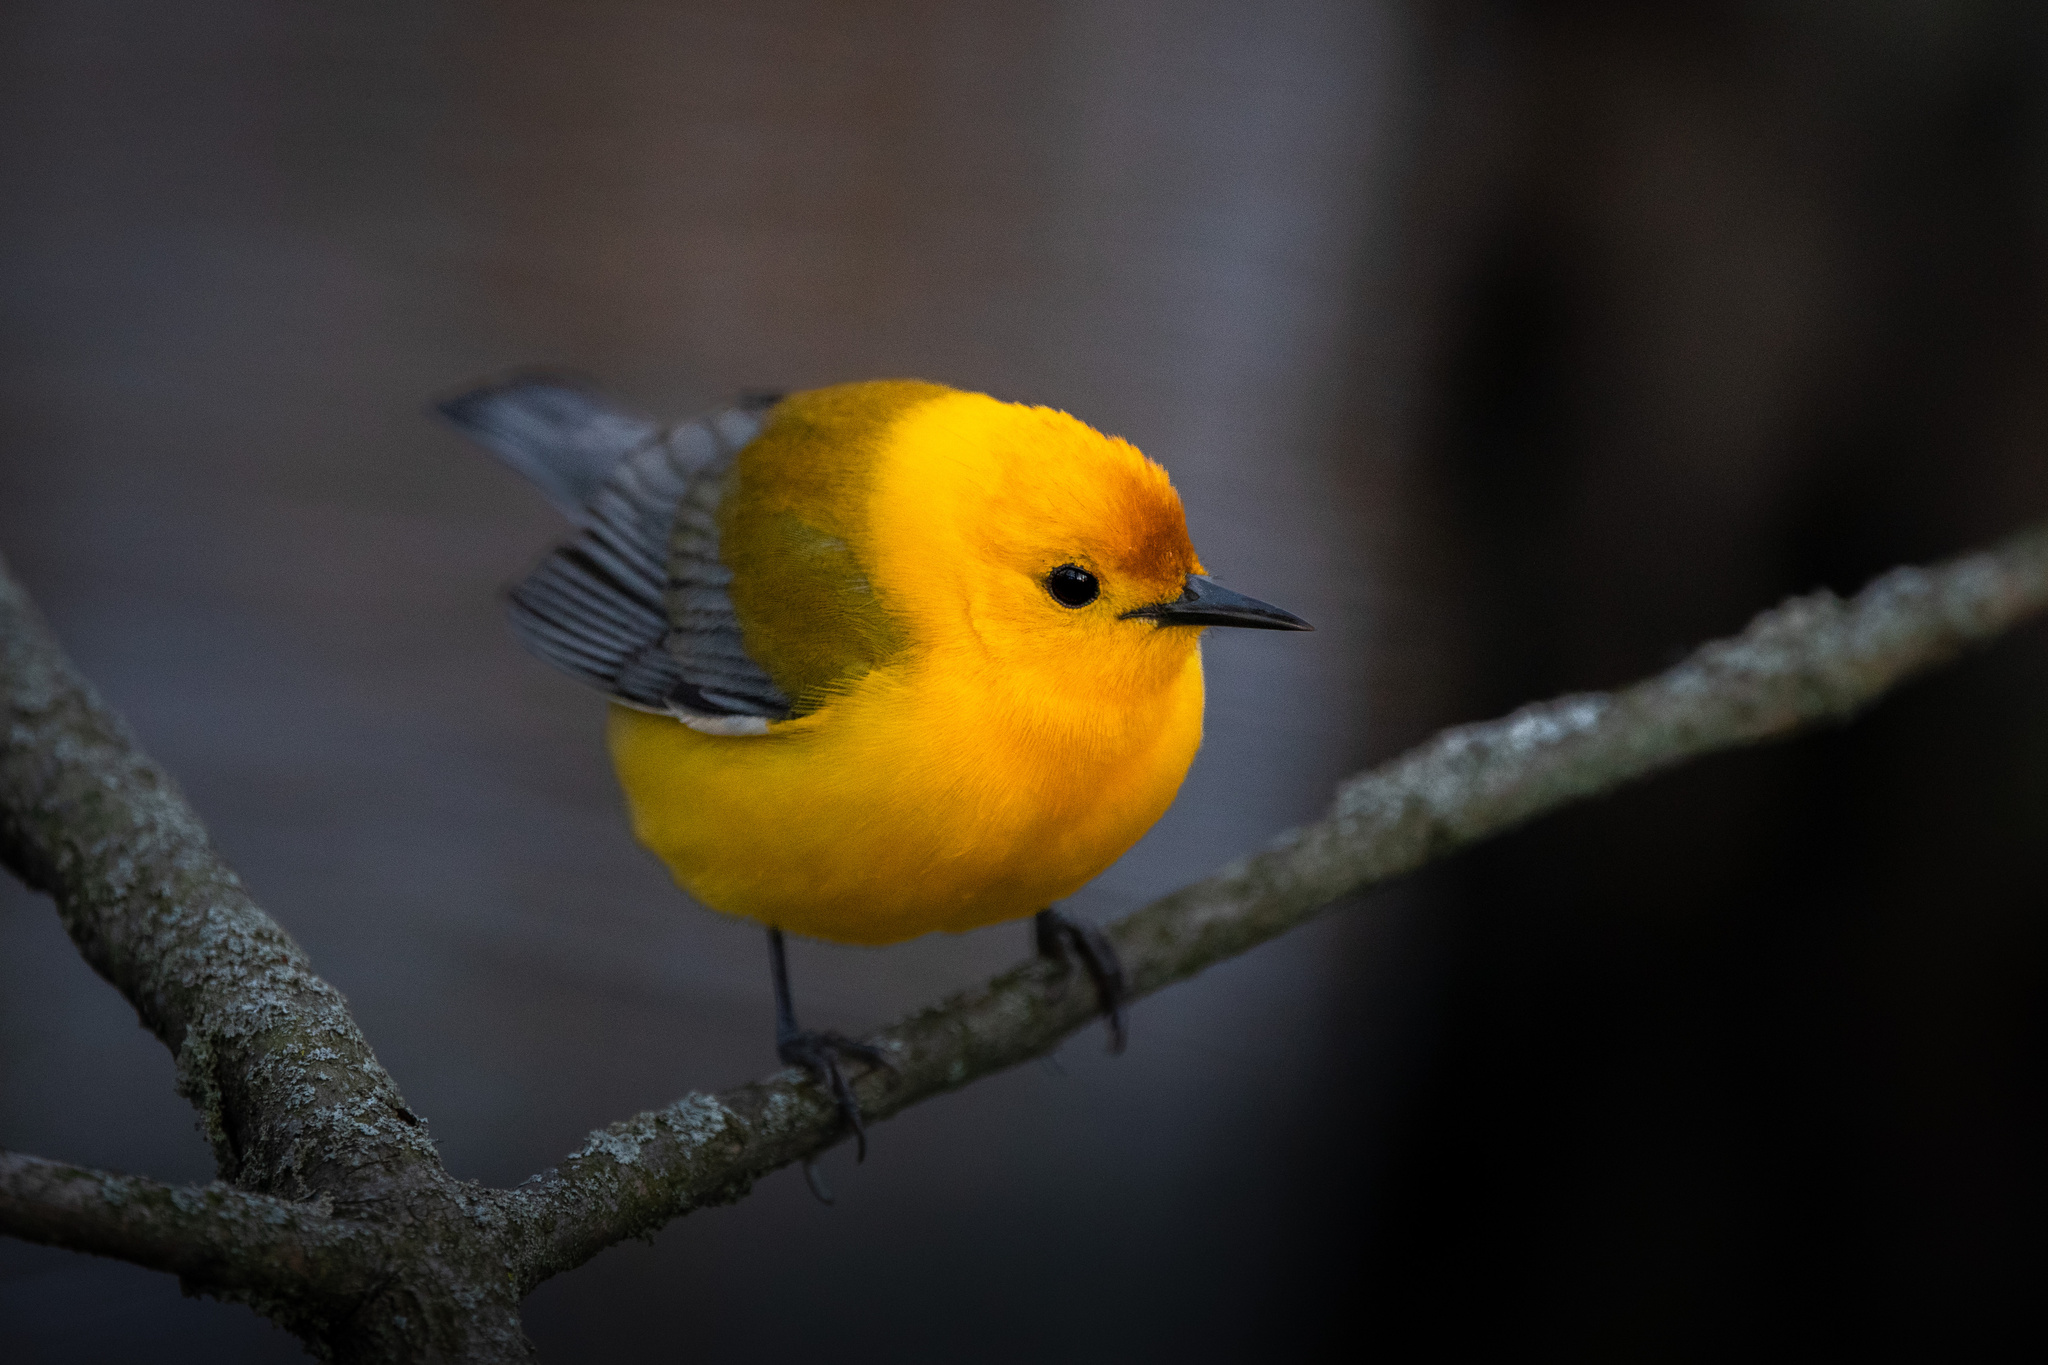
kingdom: Animalia
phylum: Chordata
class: Aves
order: Passeriformes
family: Parulidae
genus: Protonotaria
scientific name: Protonotaria citrea
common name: Prothonotary warbler
